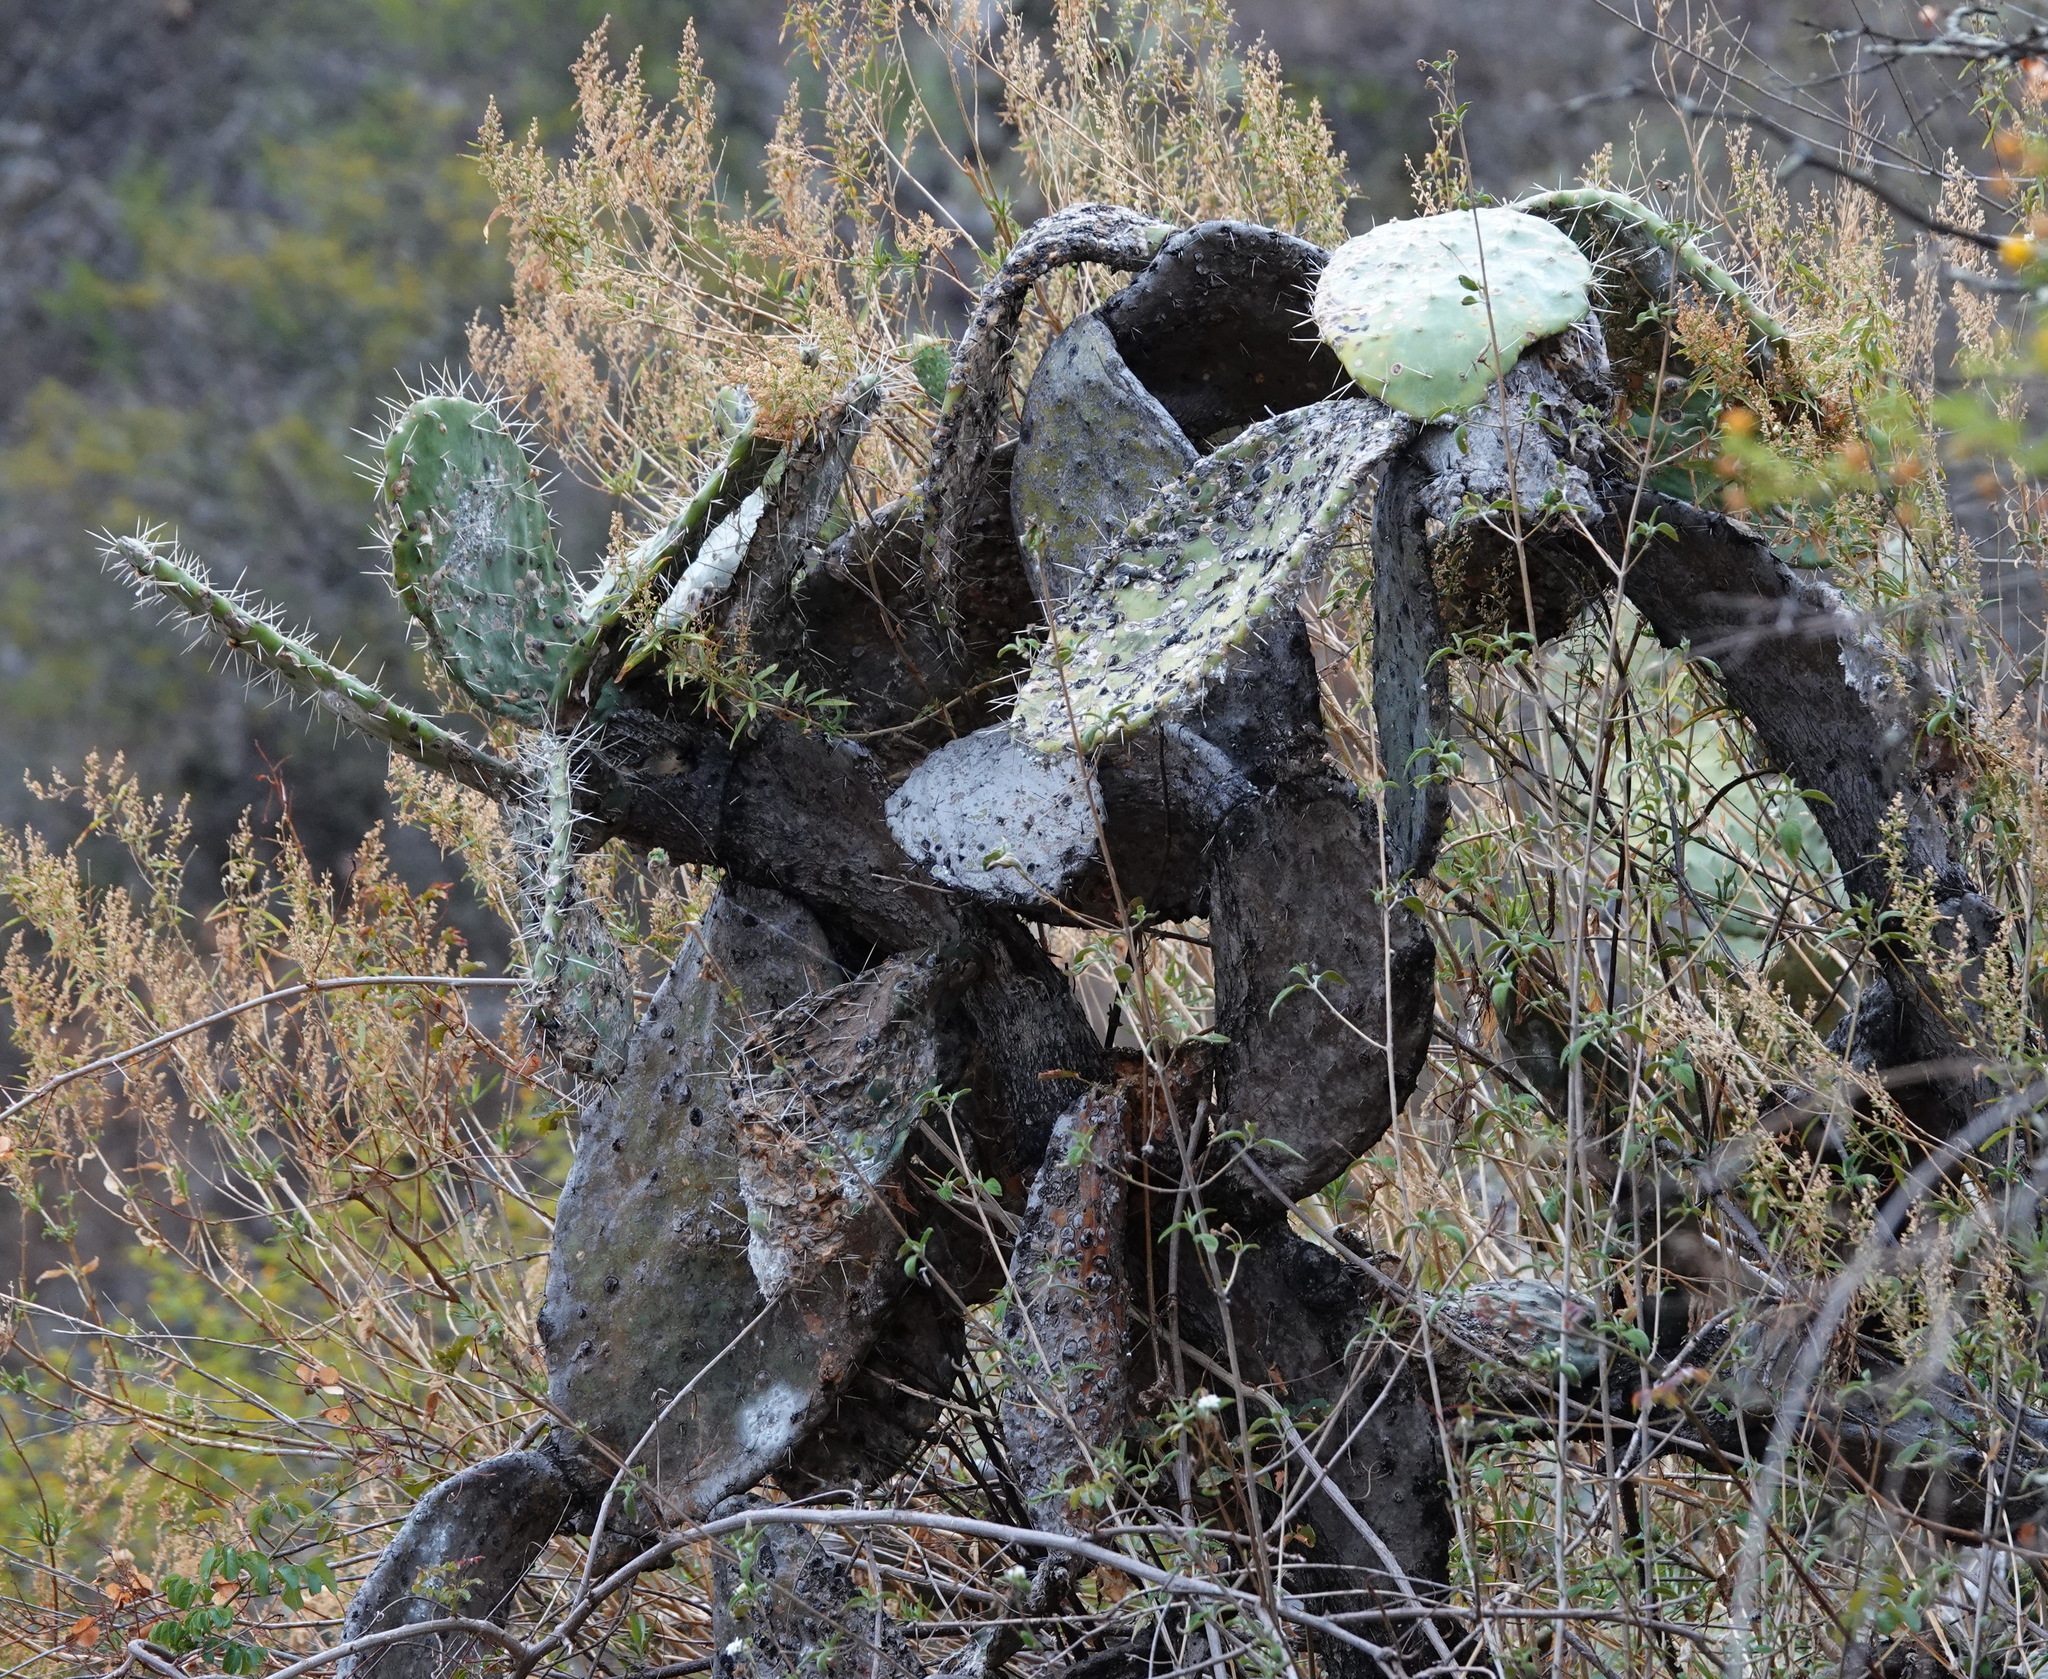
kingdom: Plantae
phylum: Tracheophyta
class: Magnoliopsida
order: Caryophyllales
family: Cactaceae
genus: Opuntia
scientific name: Opuntia ficus-indica
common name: Barbary fig
